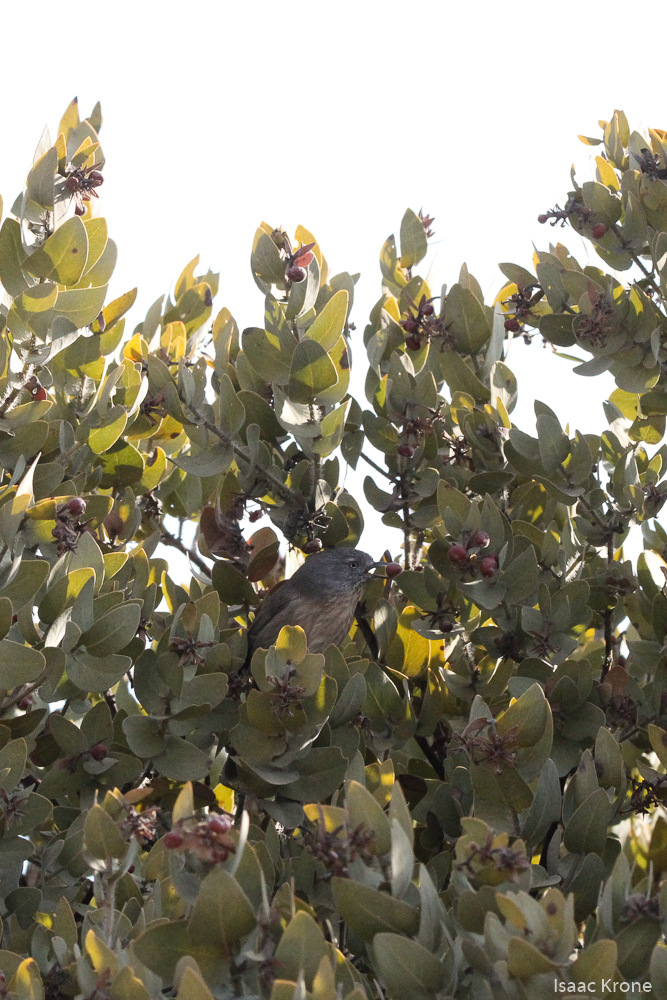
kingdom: Animalia
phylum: Chordata
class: Aves
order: Passeriformes
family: Sylviidae
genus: Chamaea
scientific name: Chamaea fasciata
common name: Wrentit
